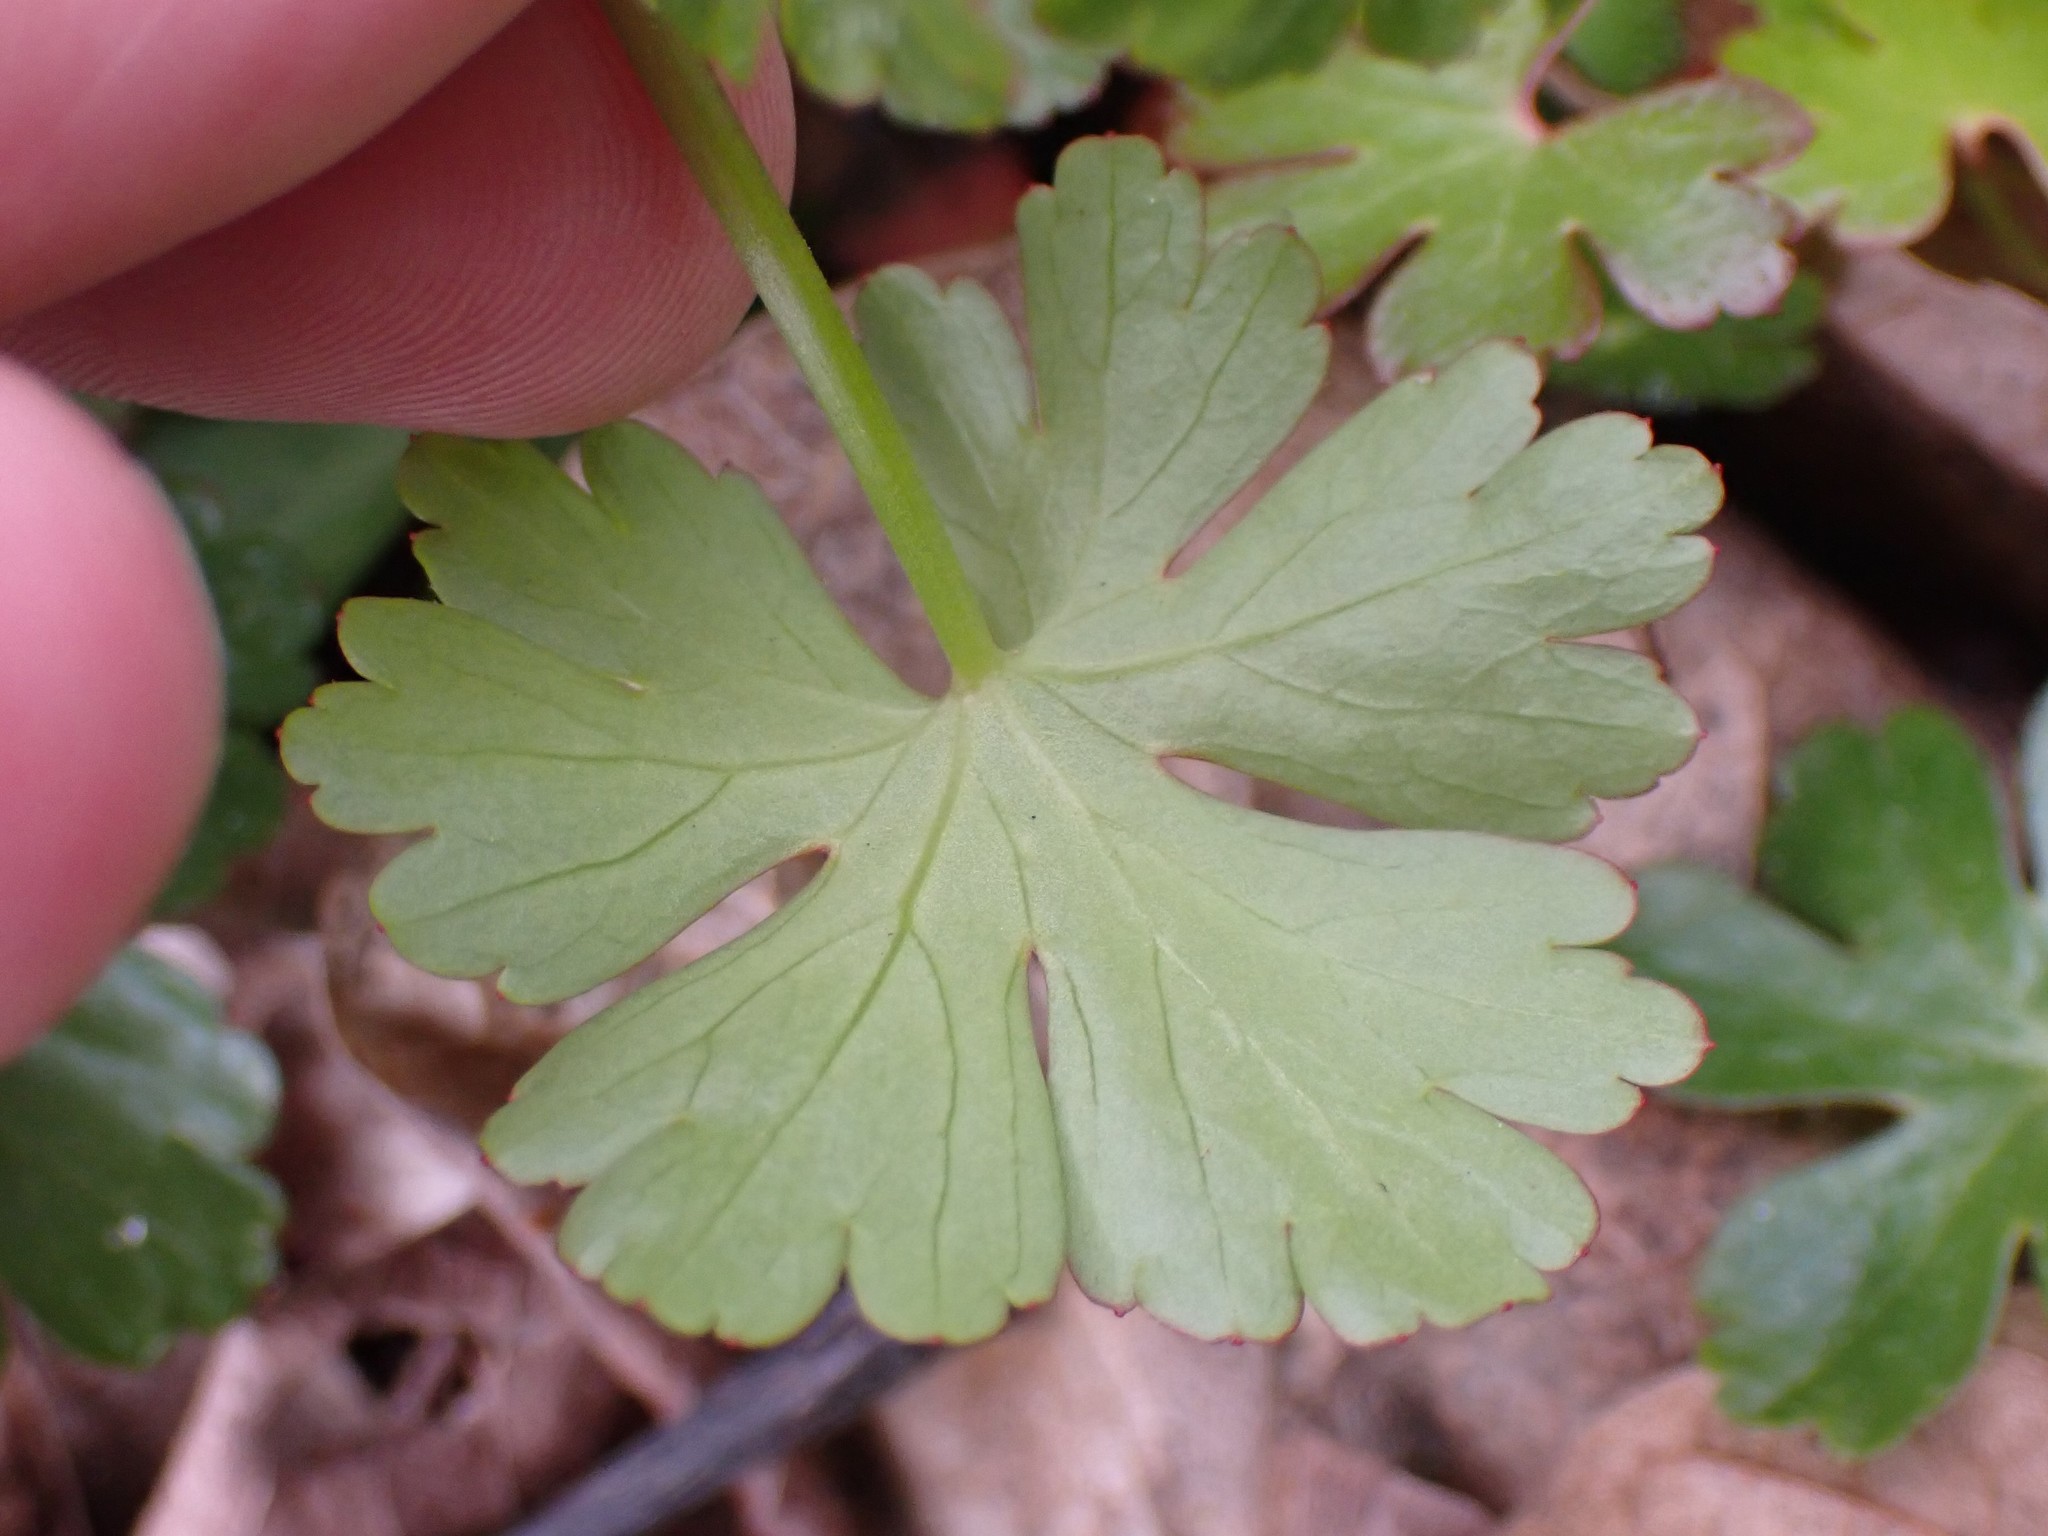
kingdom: Plantae
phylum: Tracheophyta
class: Magnoliopsida
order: Geraniales
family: Geraniaceae
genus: Geranium
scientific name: Geranium lucidum
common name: Shining crane's-bill
